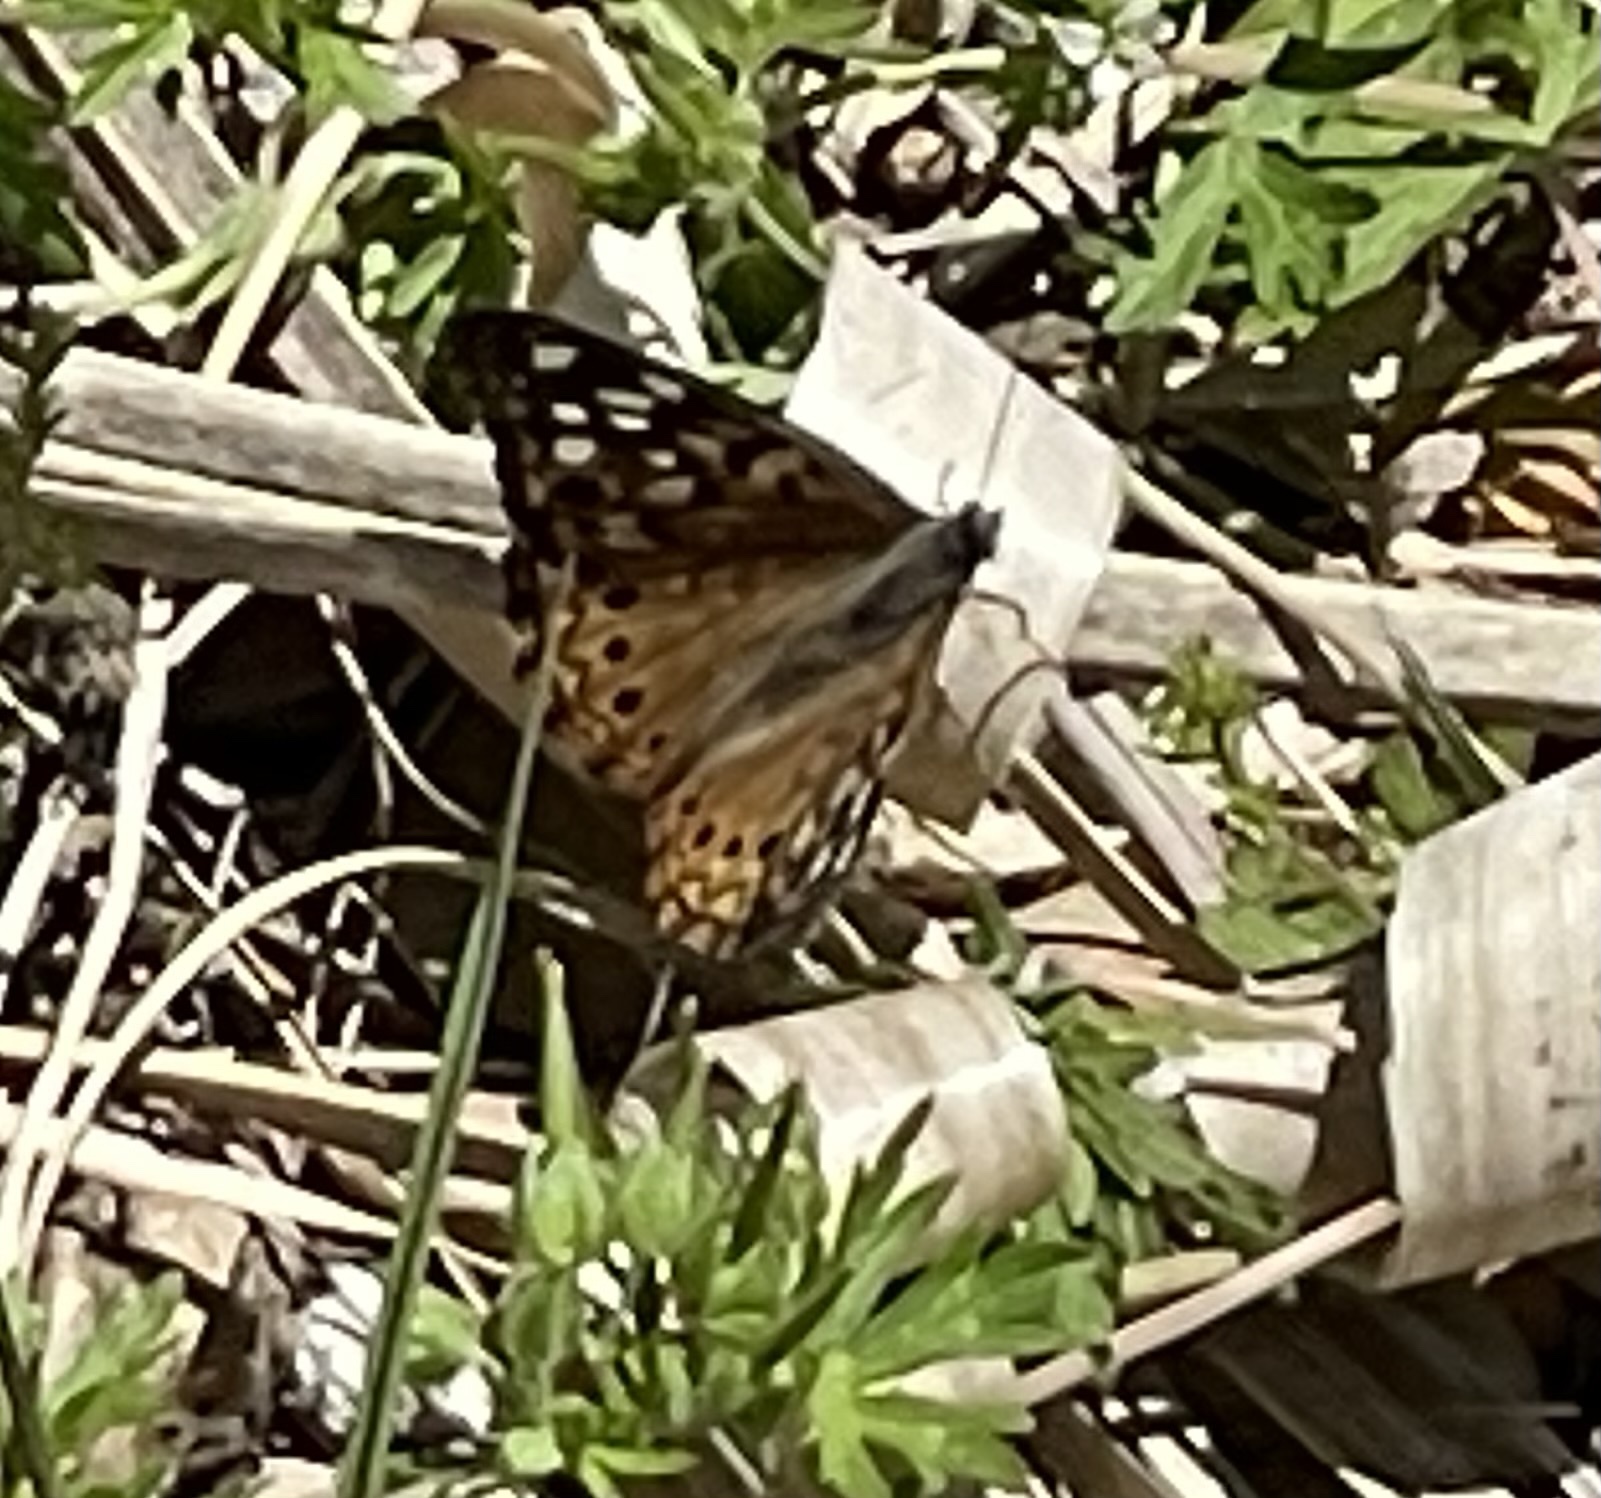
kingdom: Animalia
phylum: Arthropoda
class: Insecta
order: Lepidoptera
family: Nymphalidae
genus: Asterocampa
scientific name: Asterocampa celtis
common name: Hackberry emperor
